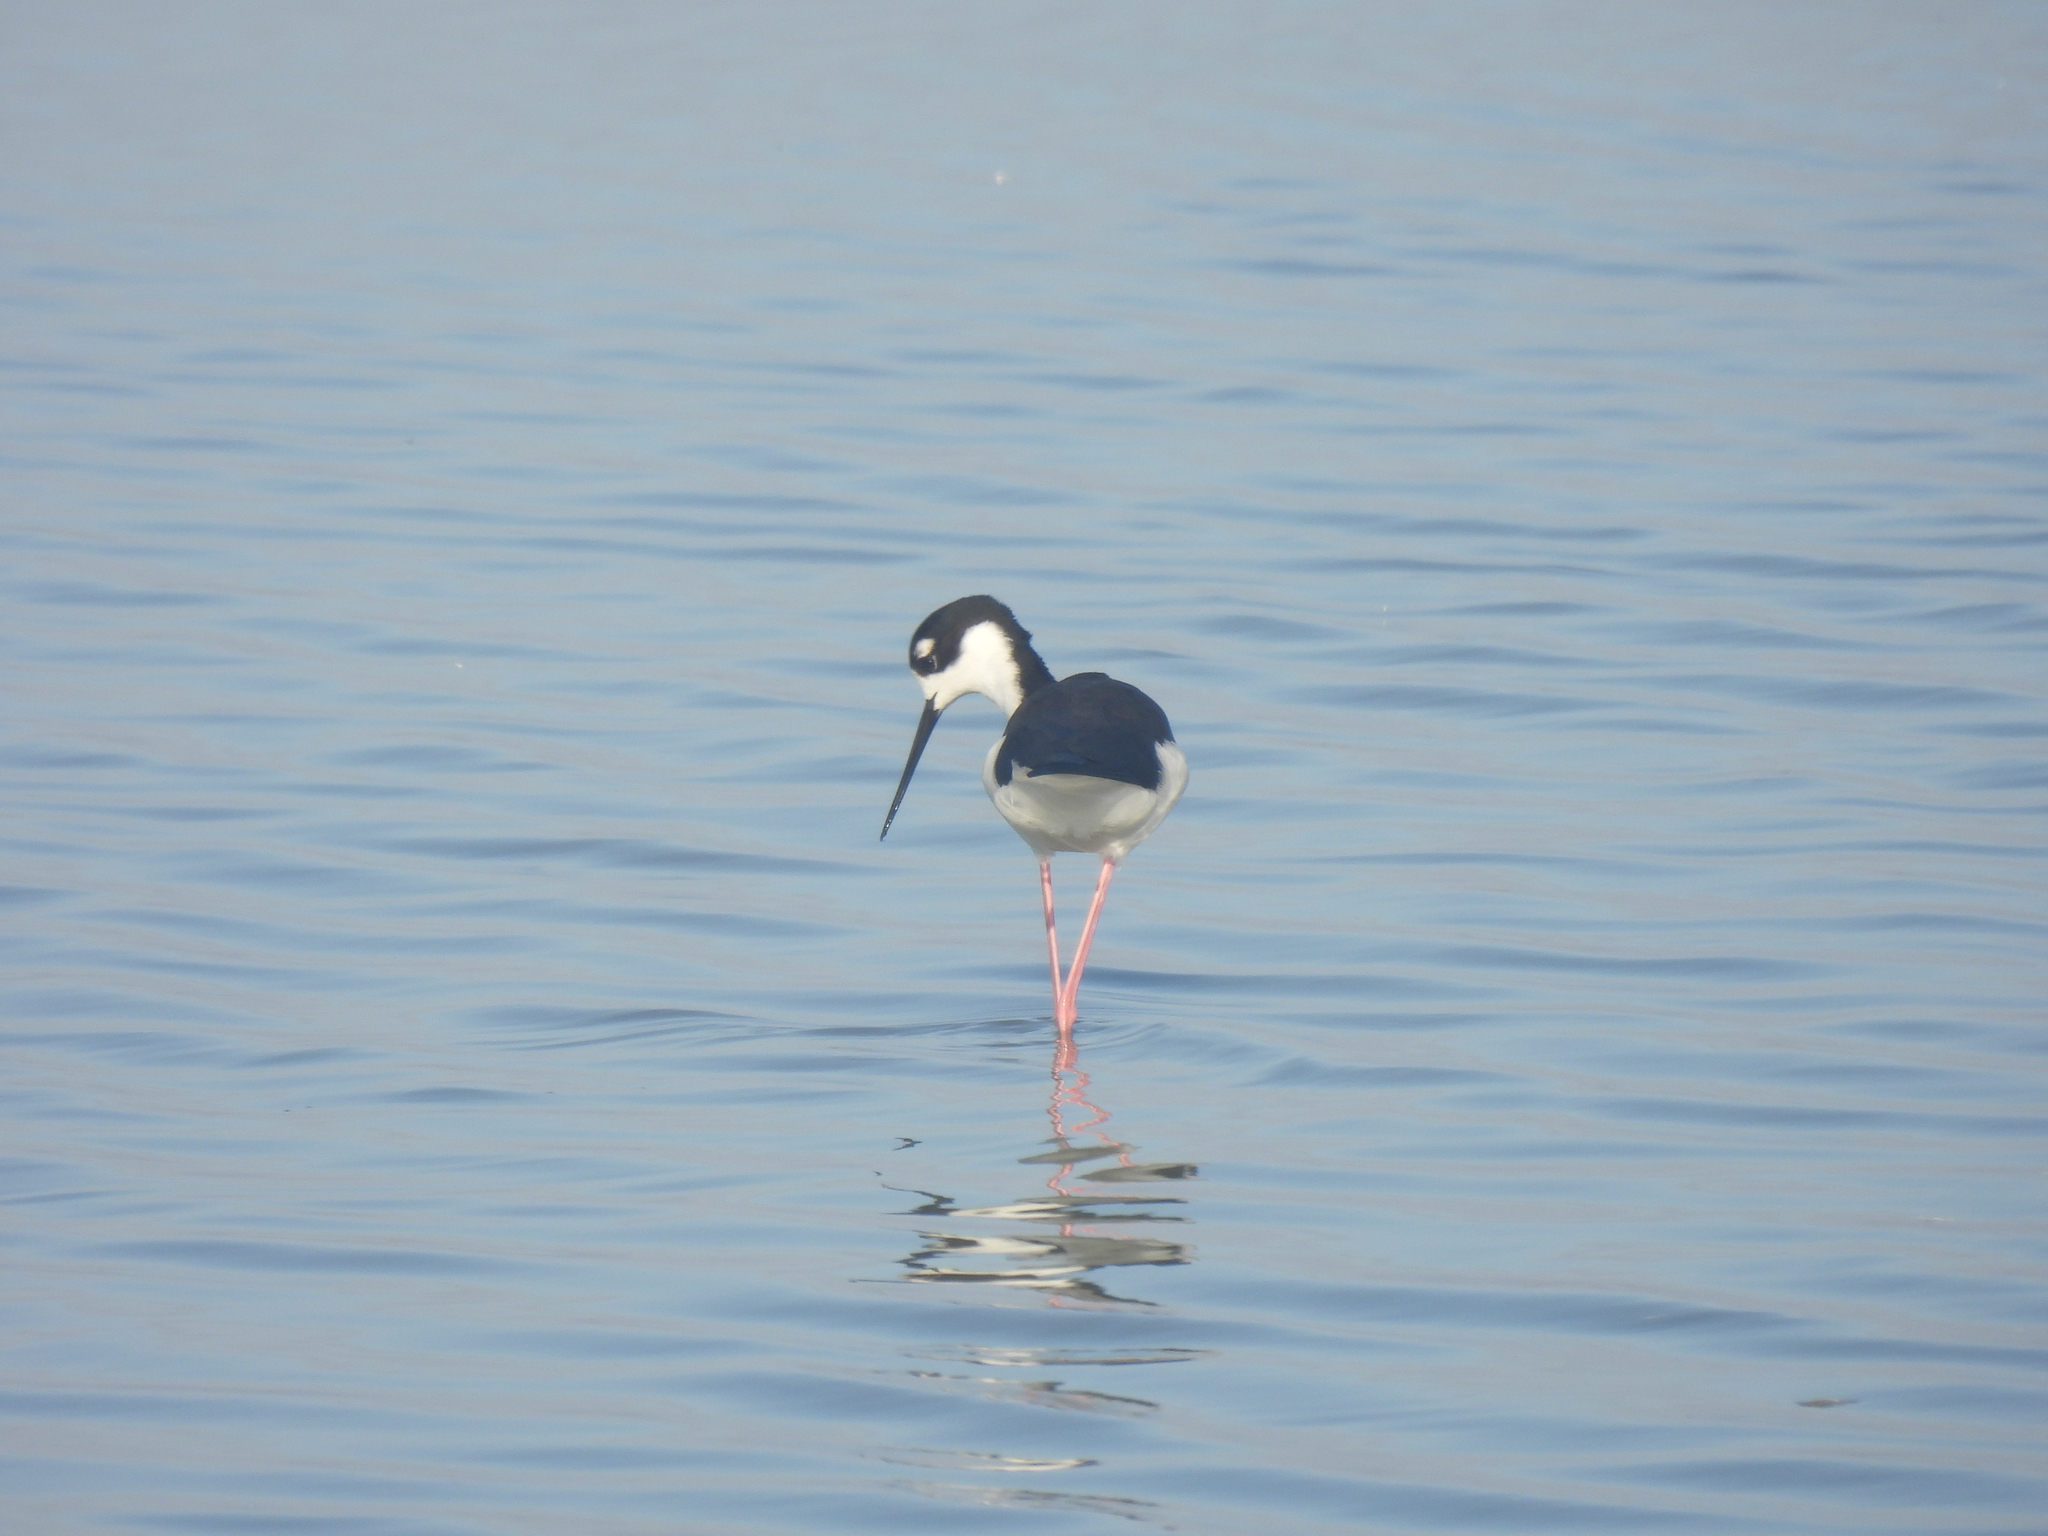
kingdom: Animalia
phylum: Chordata
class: Aves
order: Charadriiformes
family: Recurvirostridae
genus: Himantopus
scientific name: Himantopus mexicanus
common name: Black-necked stilt
